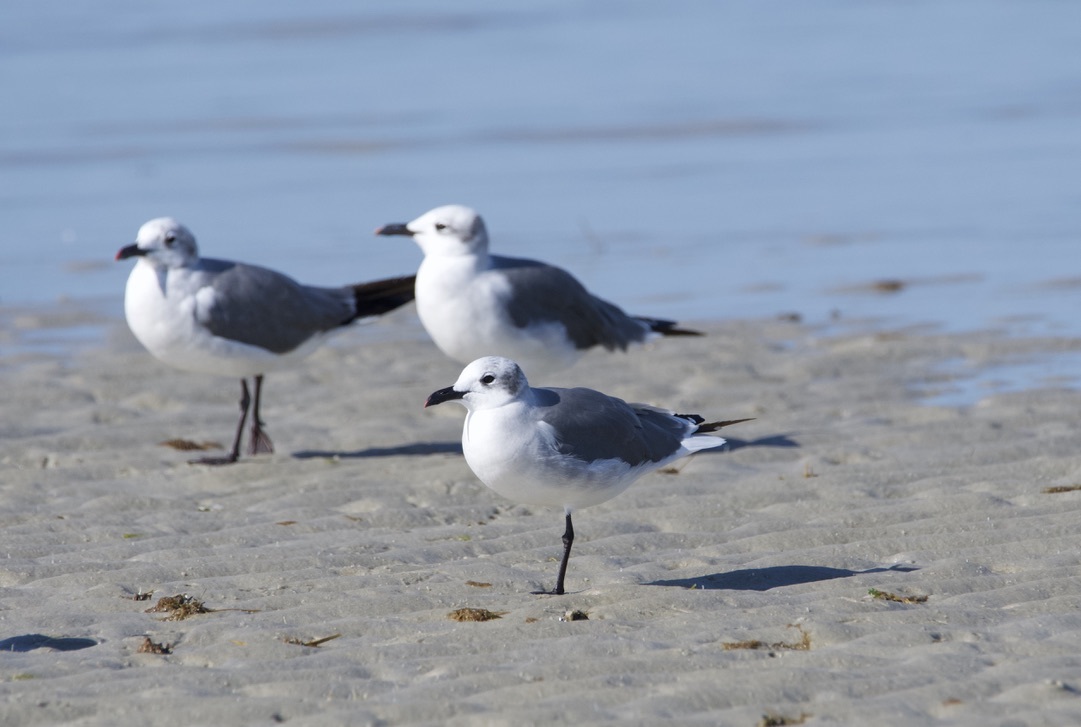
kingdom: Animalia
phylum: Chordata
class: Aves
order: Charadriiformes
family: Laridae
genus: Leucophaeus
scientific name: Leucophaeus atricilla
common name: Laughing gull
